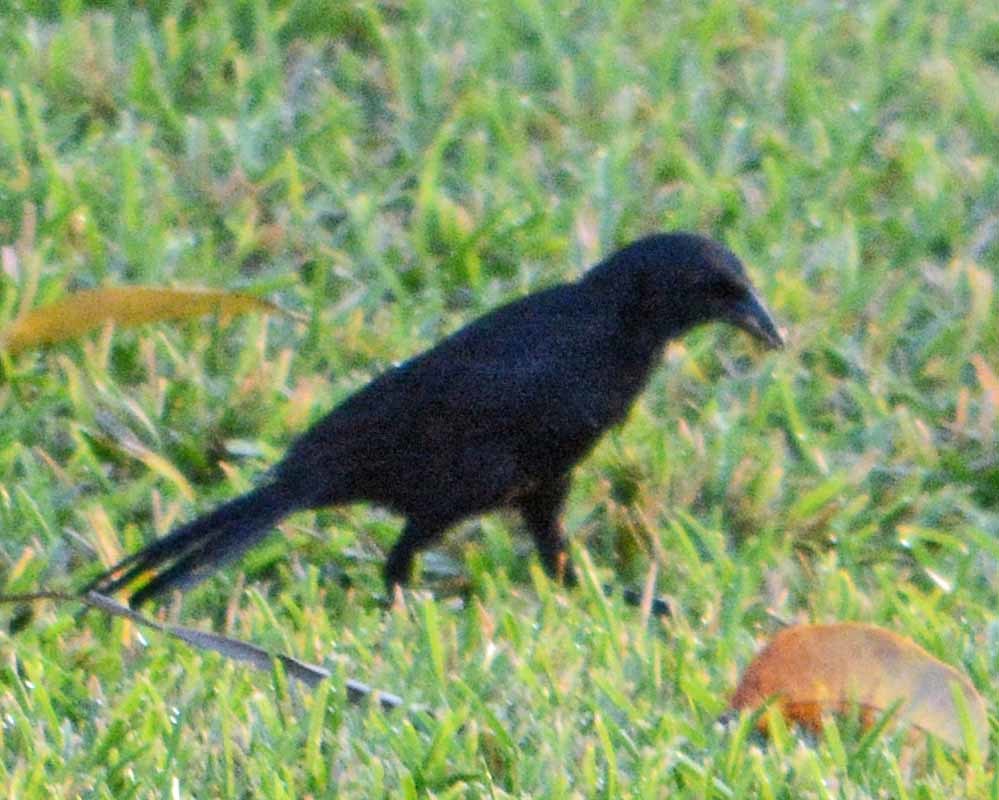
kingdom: Animalia
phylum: Chordata
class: Aves
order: Passeriformes
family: Icteridae
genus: Dives
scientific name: Dives dives
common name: Melodious blackbird
